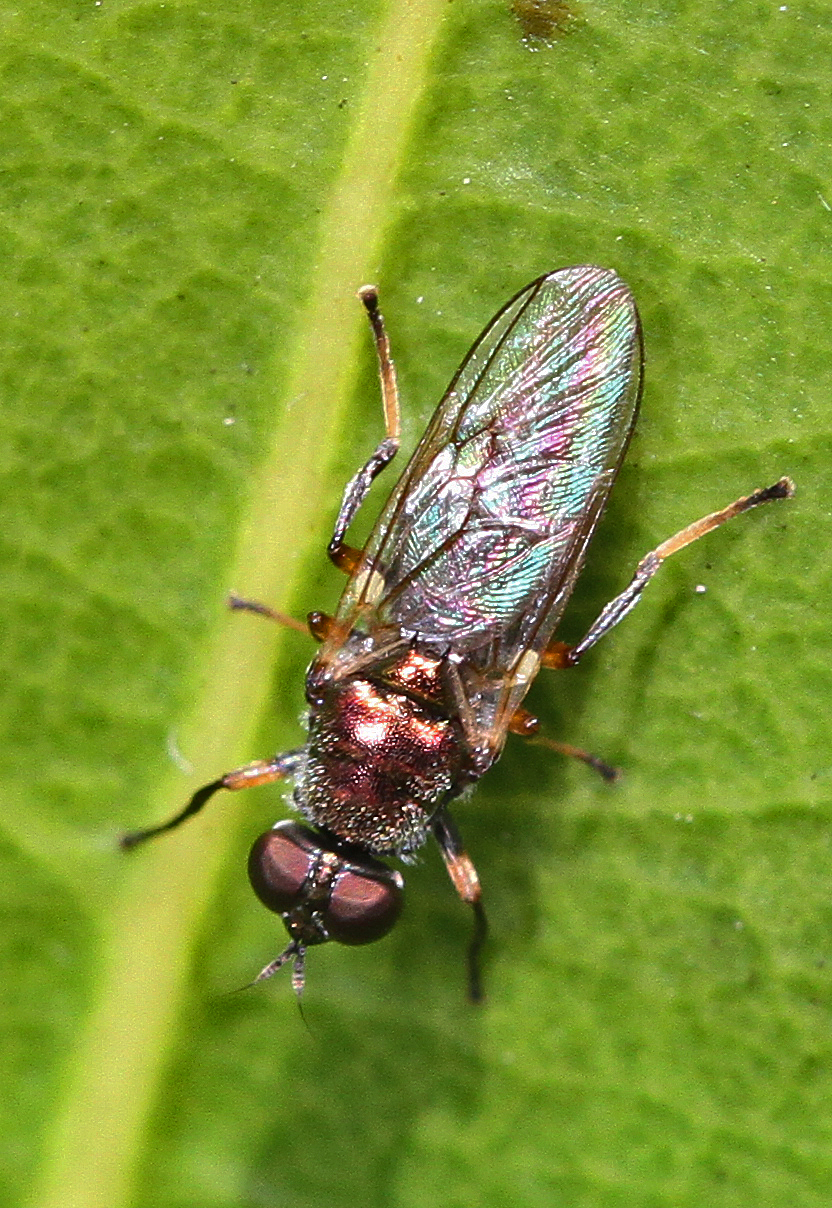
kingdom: Animalia
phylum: Arthropoda
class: Insecta
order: Diptera
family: Stratiomyidae
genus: Nothomyia
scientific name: Nothomyia calopus
